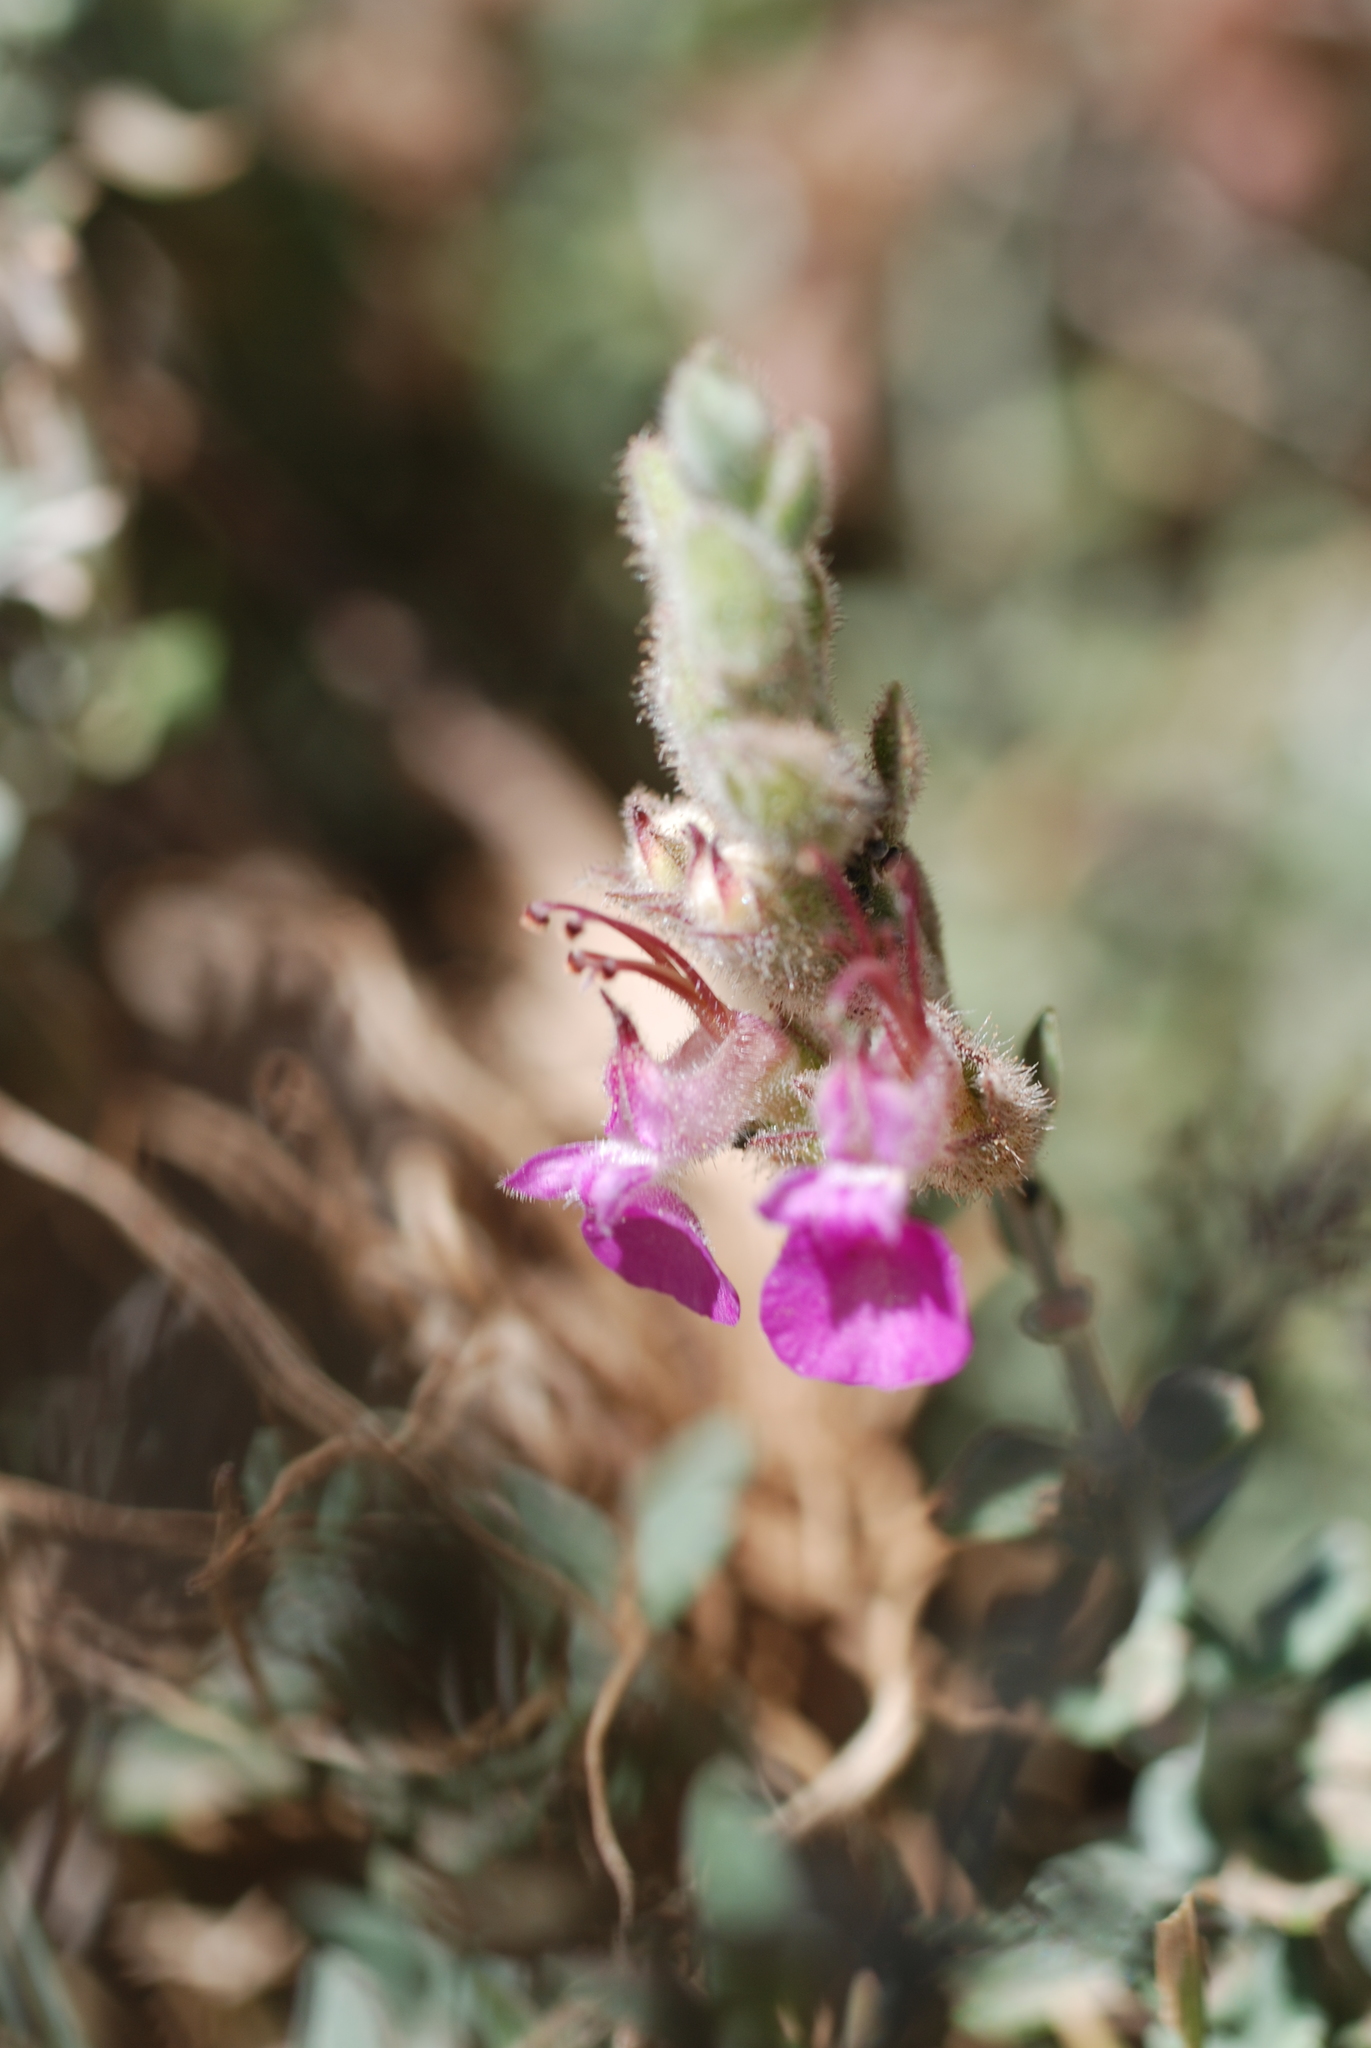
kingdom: Plantae
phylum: Tracheophyta
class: Magnoliopsida
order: Lamiales
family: Lamiaceae
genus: Teucrium
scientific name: Teucrium marum
